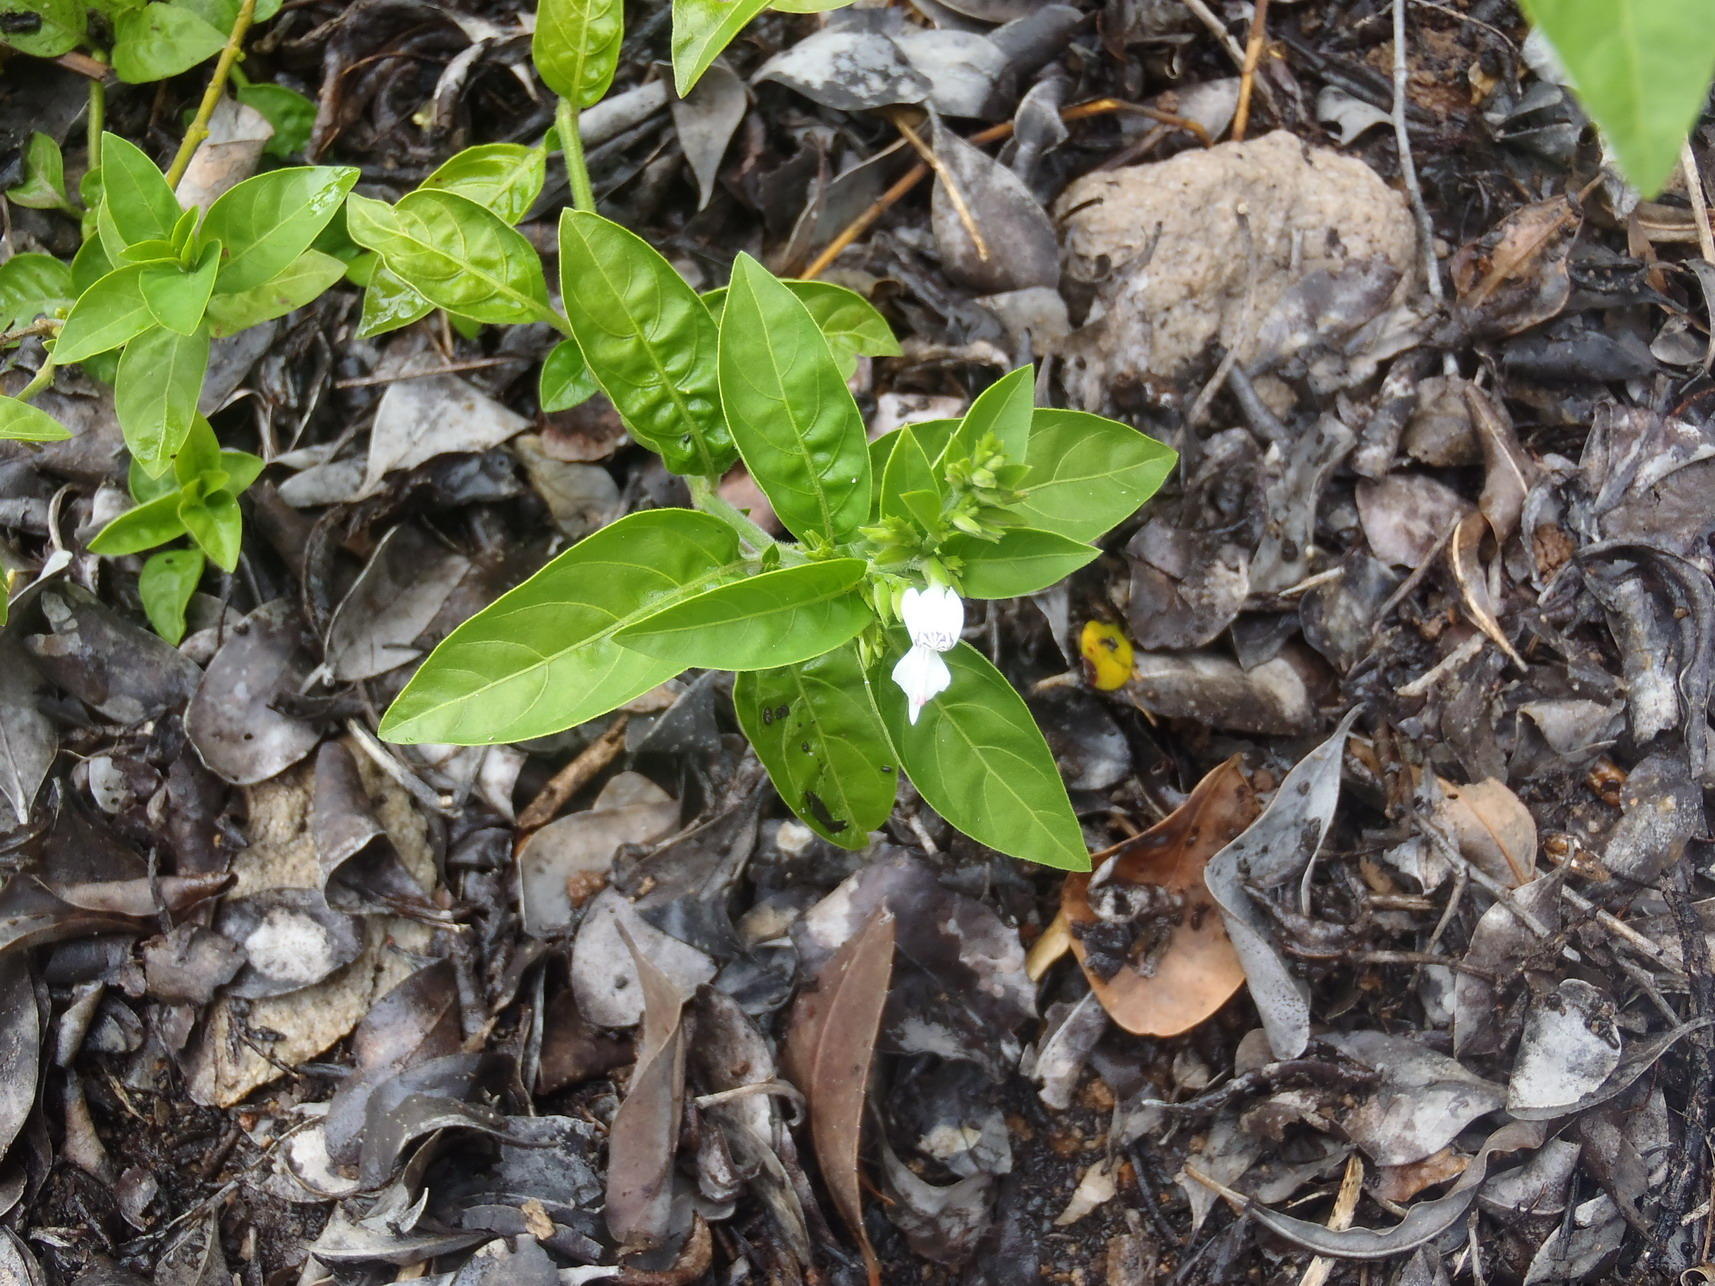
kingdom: Plantae
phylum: Tracheophyta
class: Magnoliopsida
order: Lamiales
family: Acanthaceae
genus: Hypoestes
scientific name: Hypoestes forskaolii
